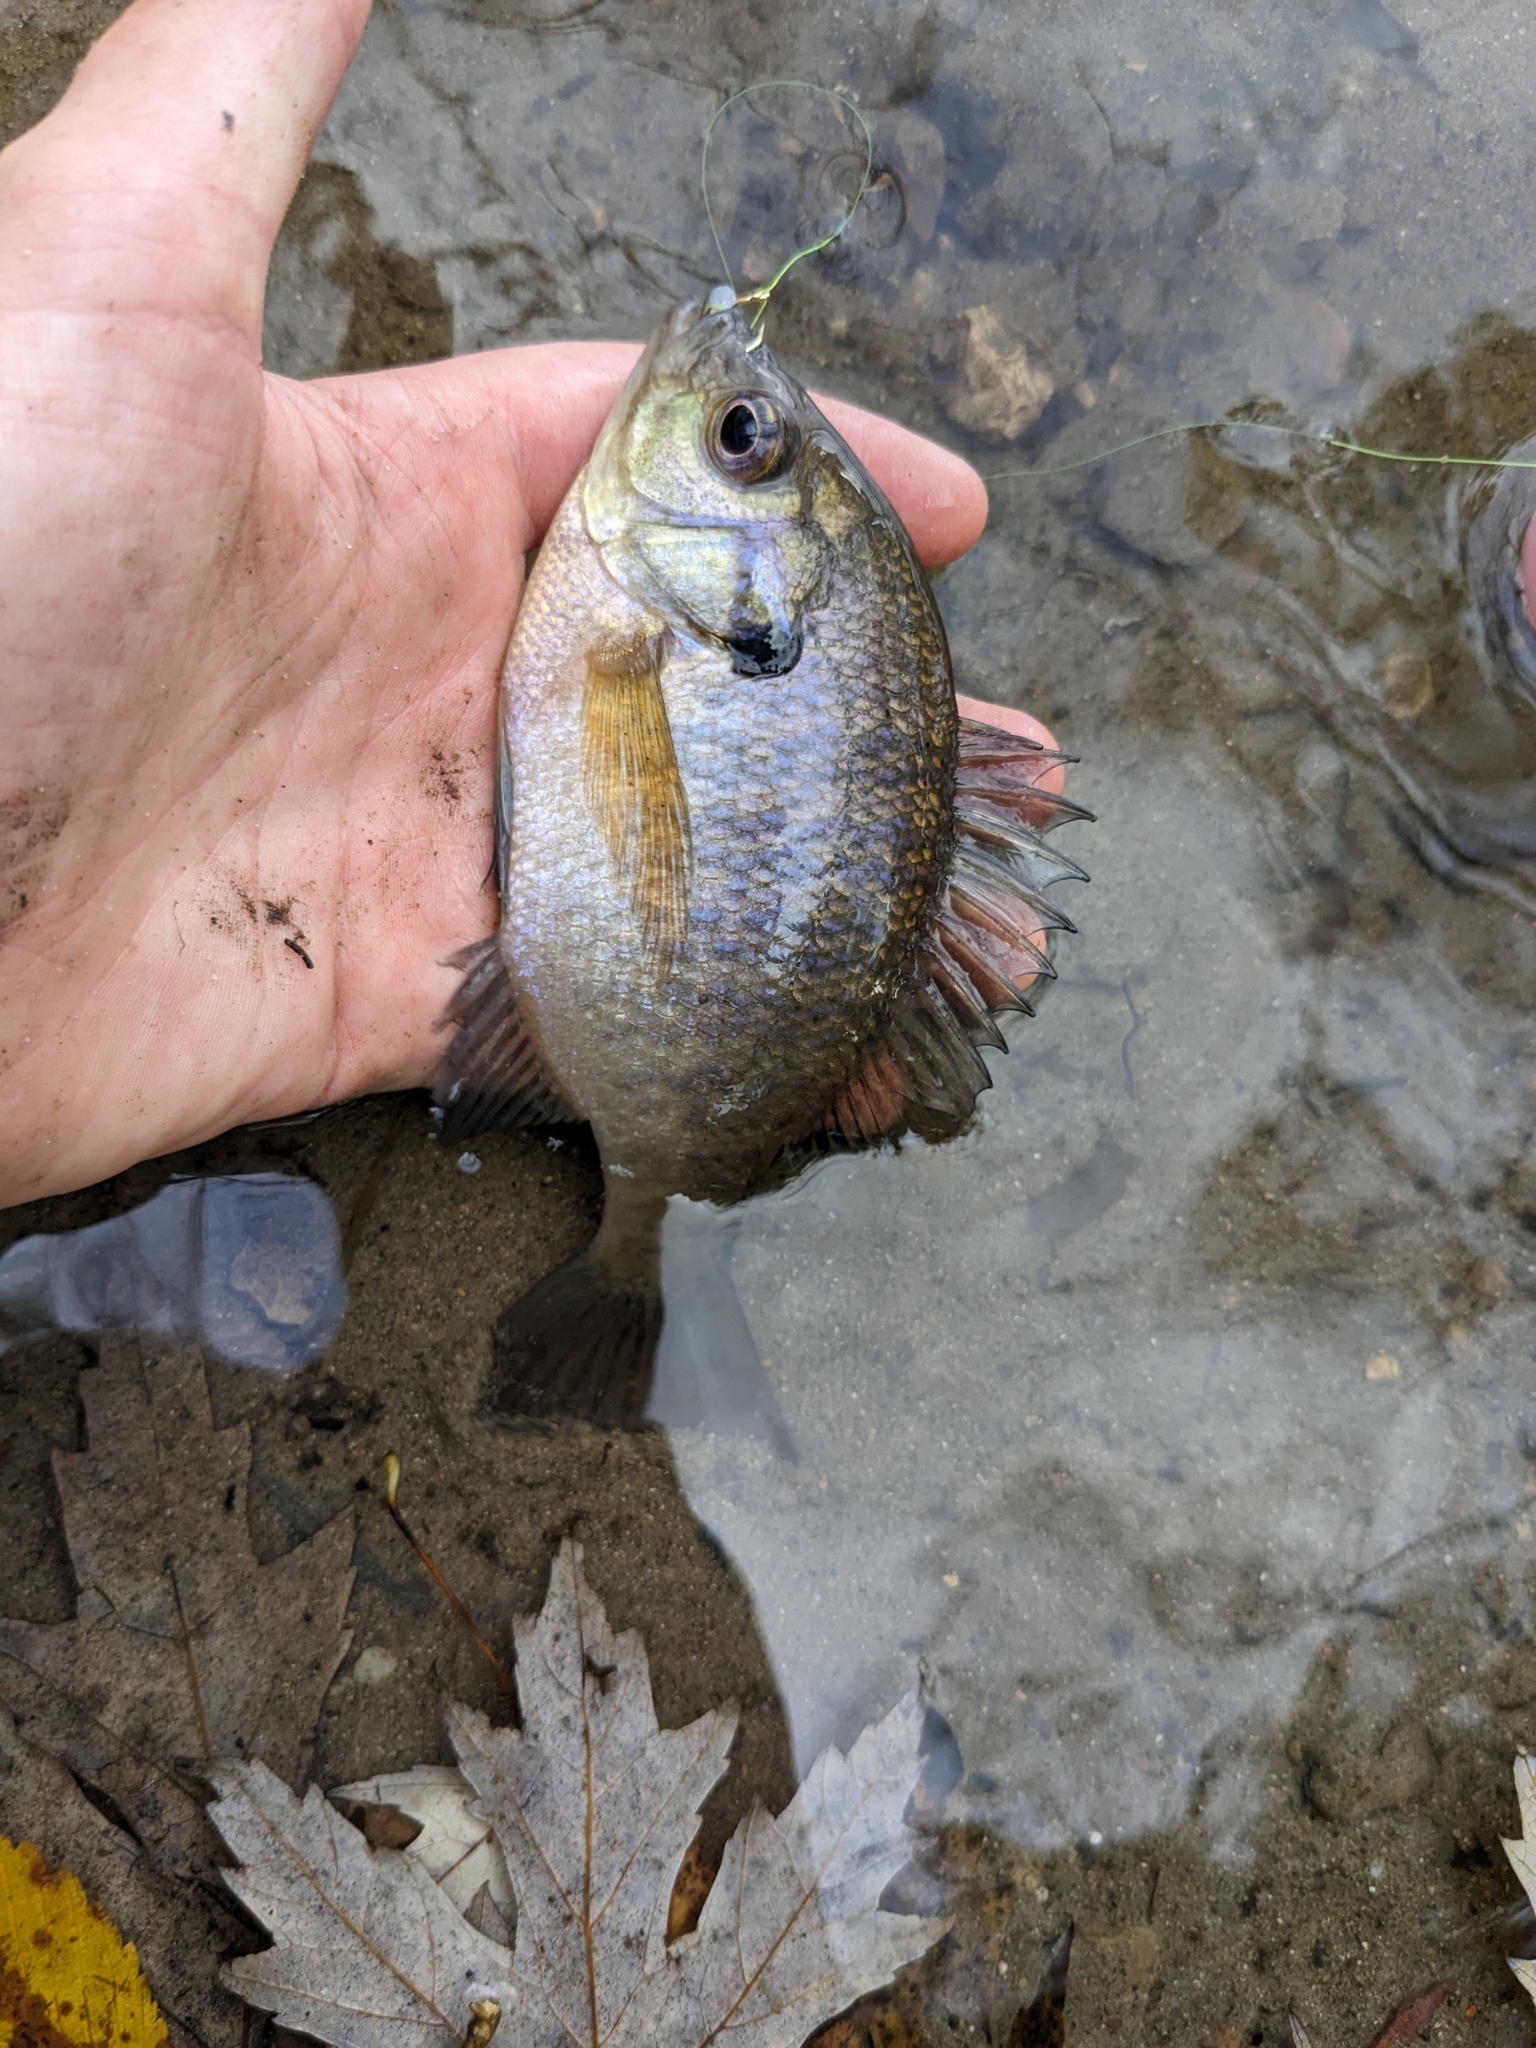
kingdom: Animalia
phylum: Chordata
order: Perciformes
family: Centrarchidae
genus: Lepomis
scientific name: Lepomis macrochirus
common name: Bluegill
